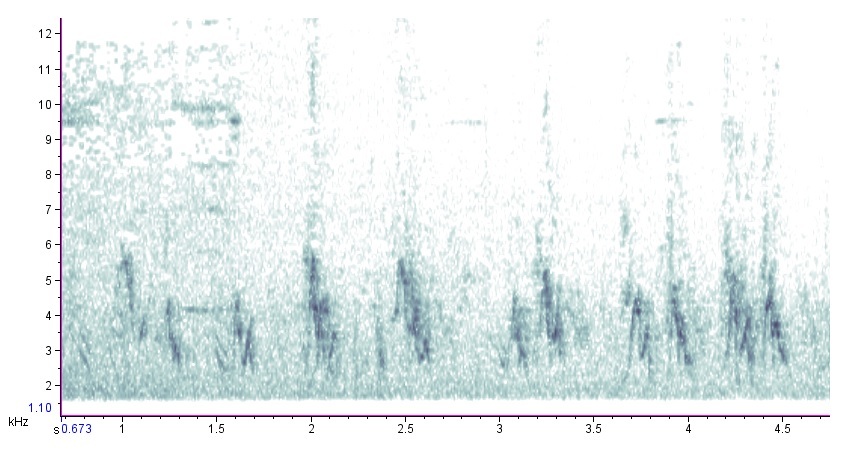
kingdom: Animalia
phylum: Chordata
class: Aves
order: Passeriformes
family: Passeridae
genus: Passer
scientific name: Passer domesticus
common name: House sparrow
